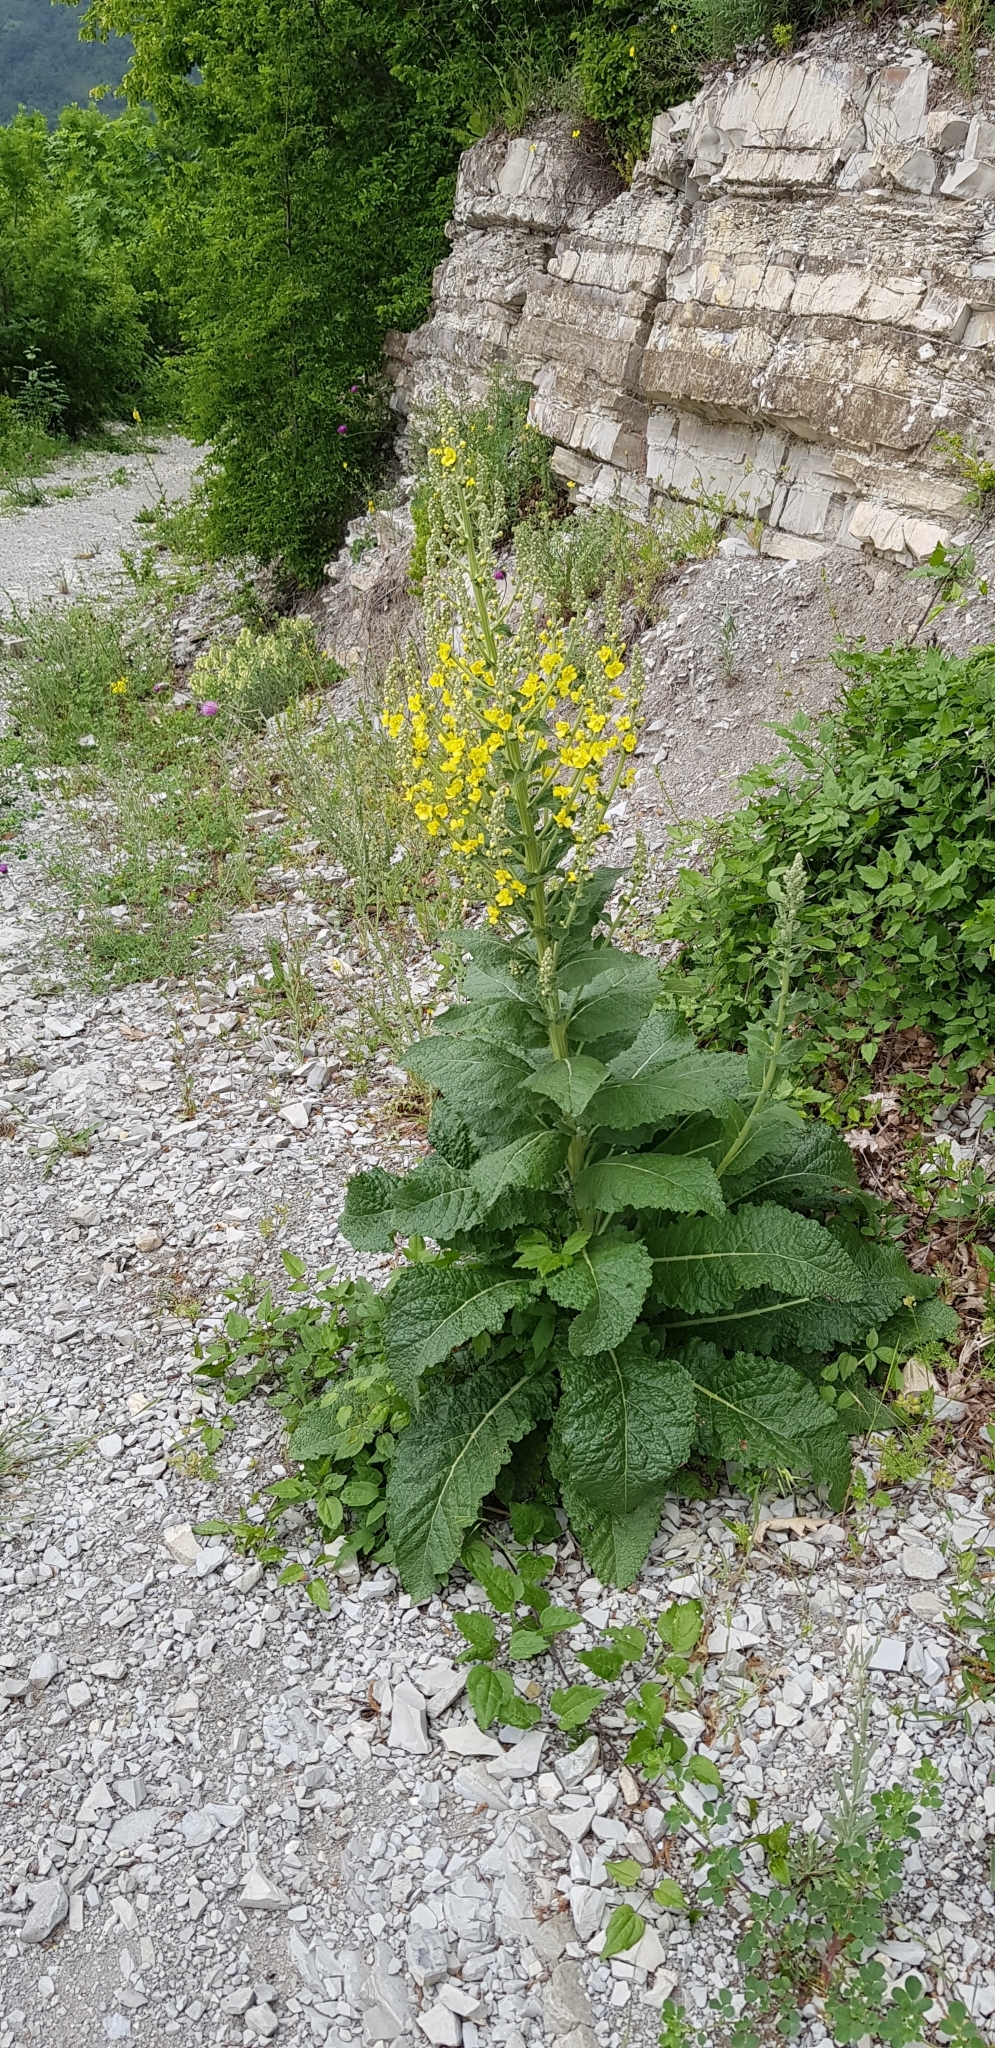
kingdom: Plantae
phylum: Tracheophyta
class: Magnoliopsida
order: Lamiales
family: Scrophulariaceae
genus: Verbascum
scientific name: Verbascum lychnitis
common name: White mullein
